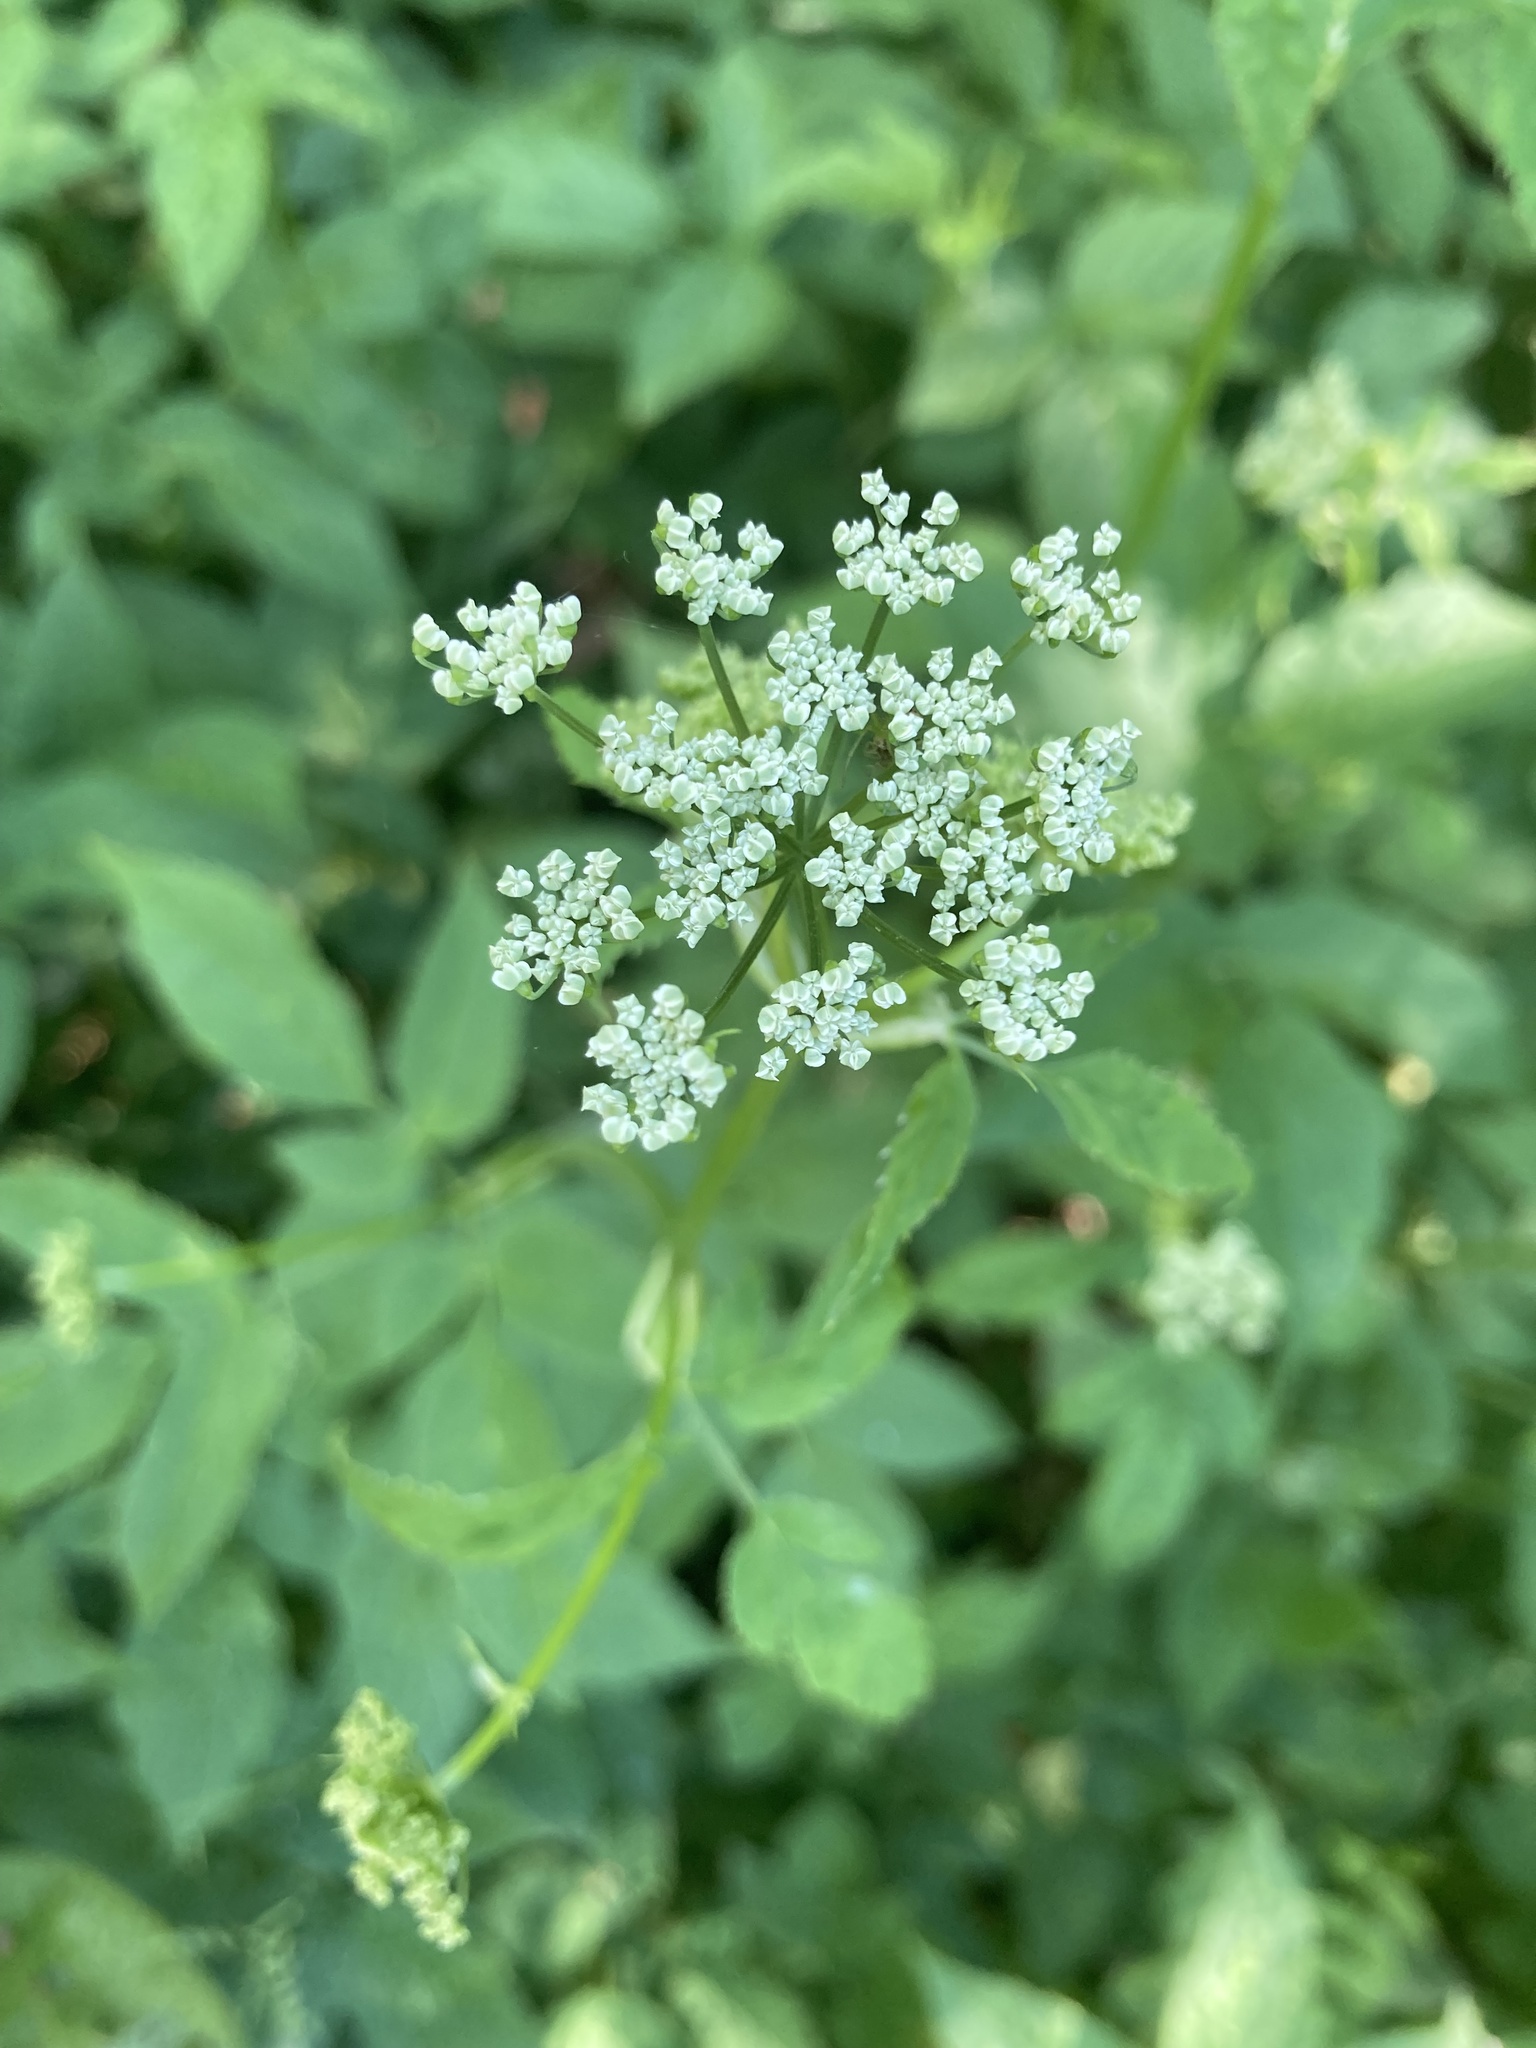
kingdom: Plantae
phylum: Tracheophyta
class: Magnoliopsida
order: Apiales
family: Apiaceae
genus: Aegopodium
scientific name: Aegopodium podagraria
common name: Ground-elder
